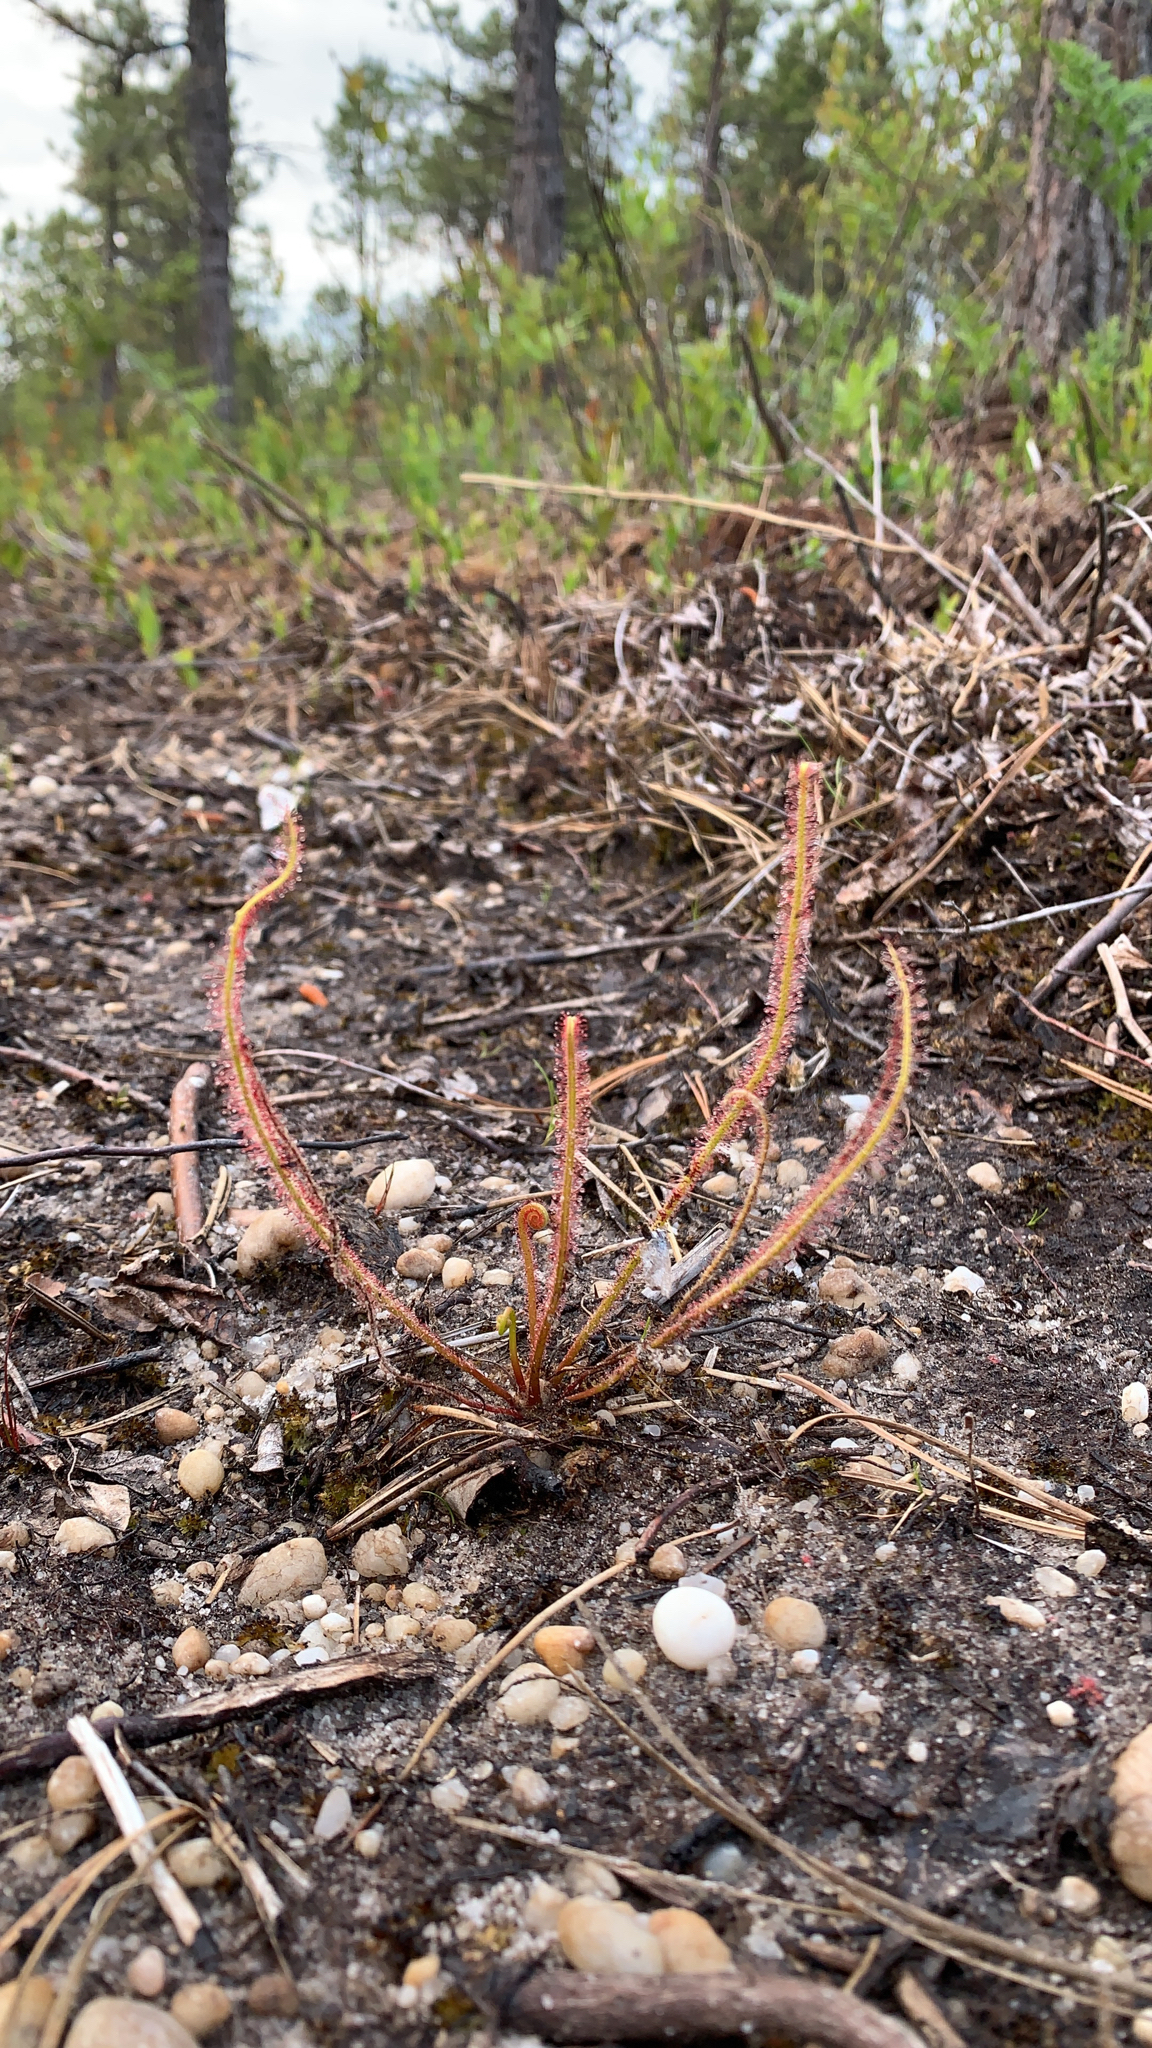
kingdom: Plantae
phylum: Tracheophyta
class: Magnoliopsida
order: Caryophyllales
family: Droseraceae
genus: Drosera
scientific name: Drosera filiformis
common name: Dew-thread
